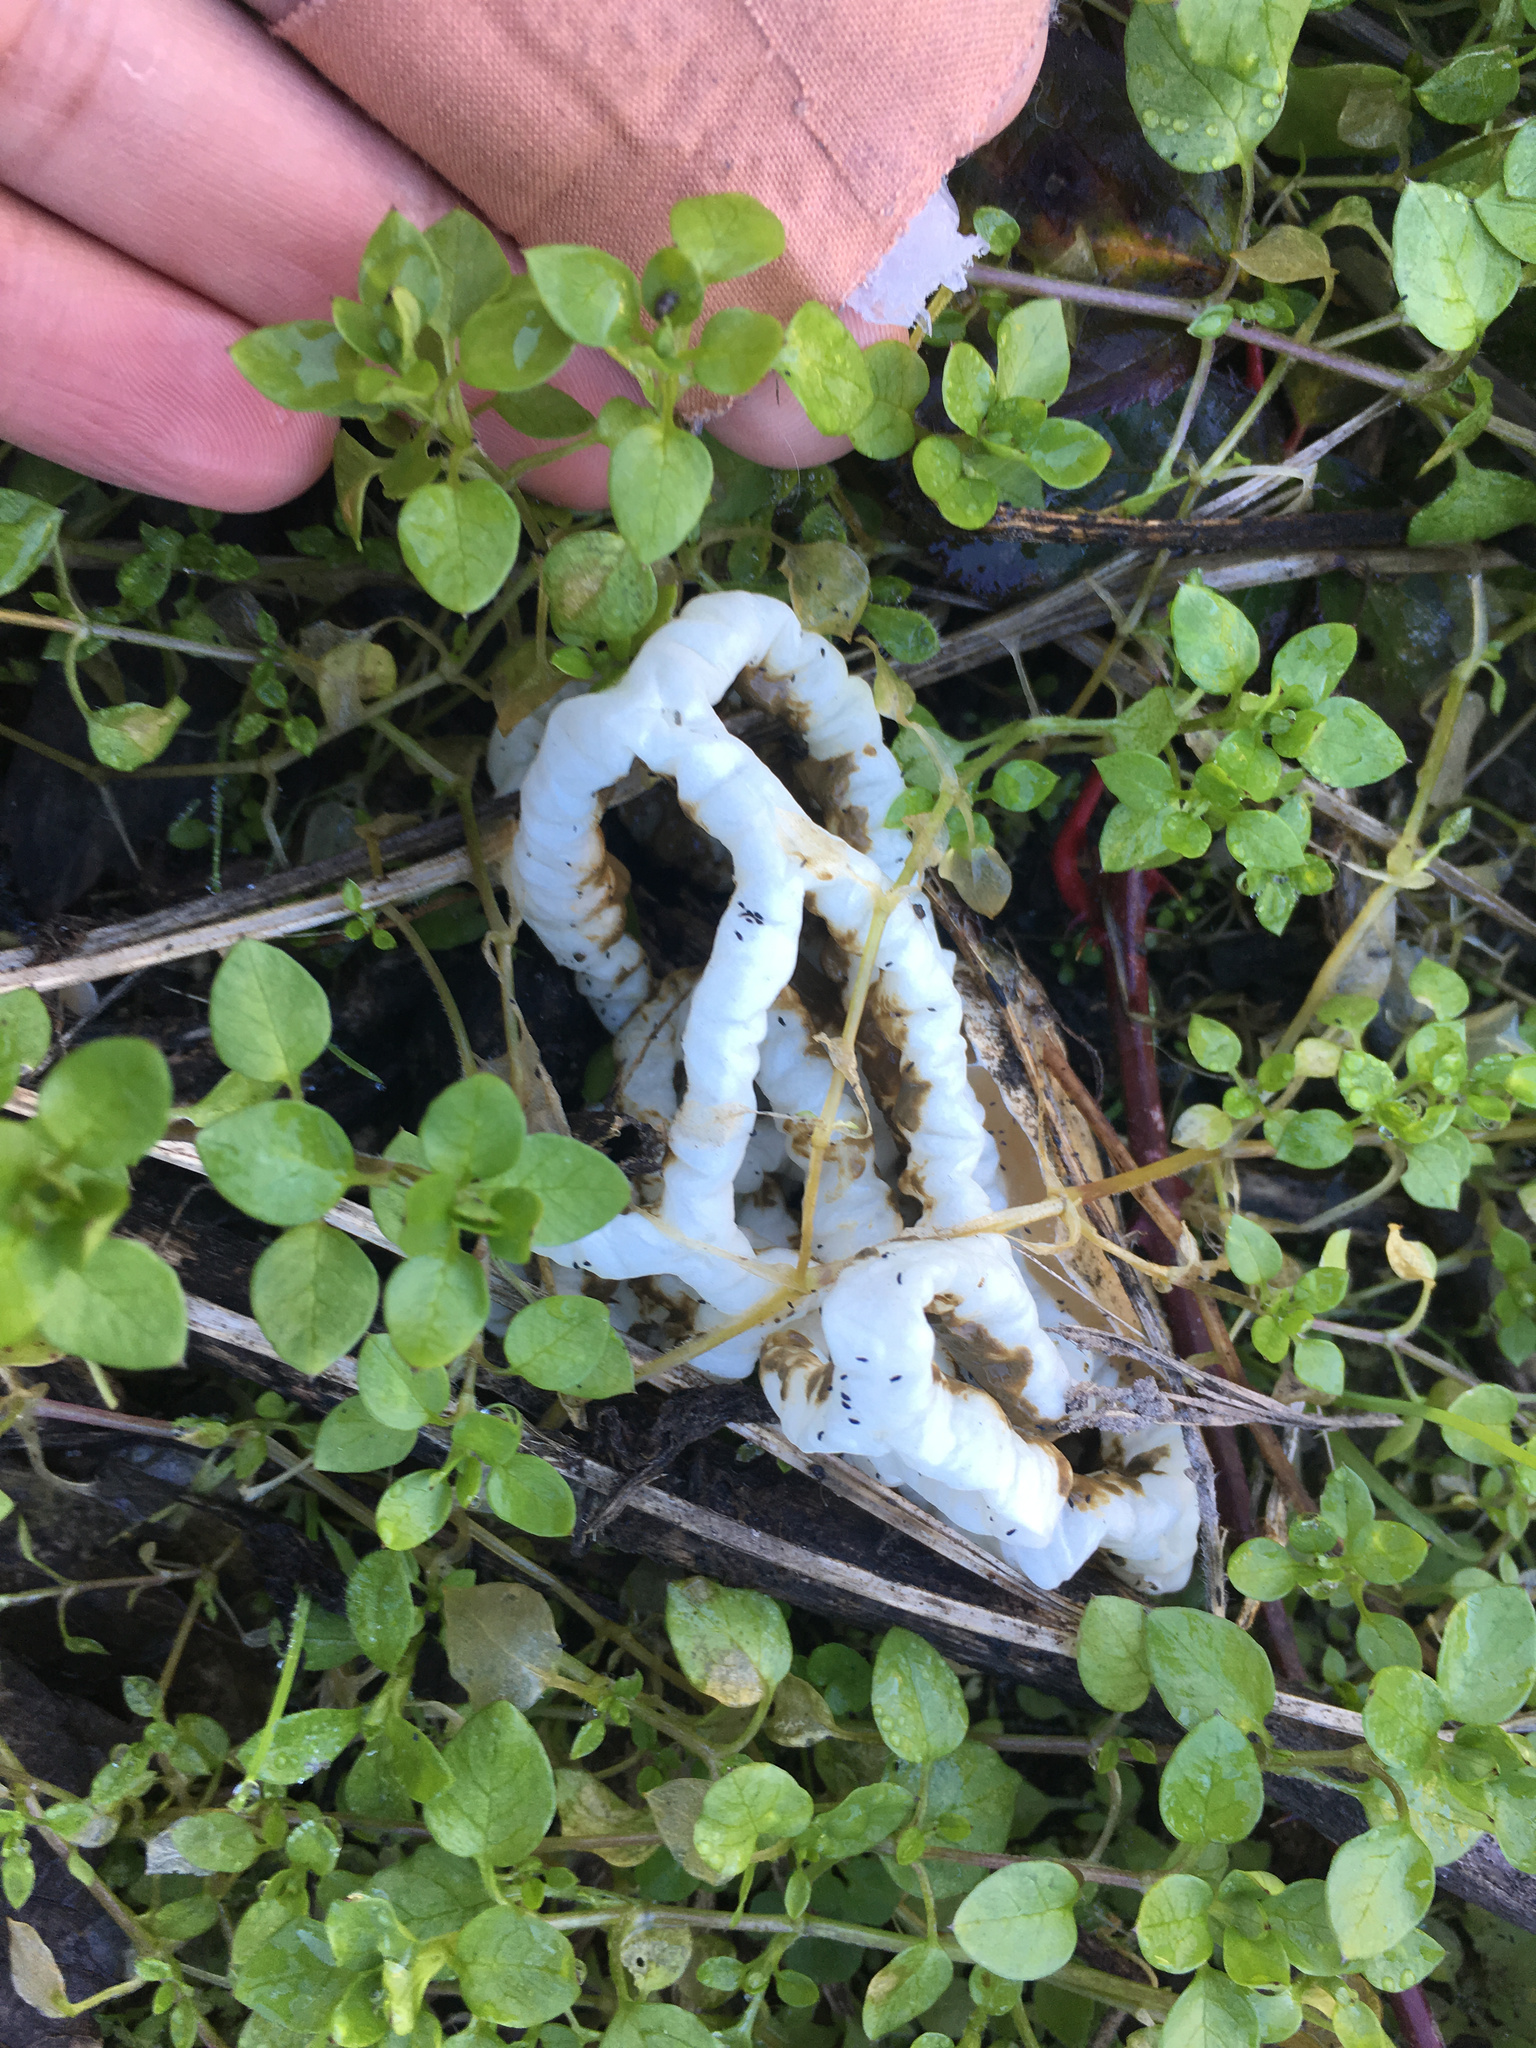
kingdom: Fungi
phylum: Basidiomycota
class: Agaricomycetes
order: Phallales
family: Phallaceae
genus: Ileodictyon
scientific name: Ileodictyon cibarium
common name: Basket fungus
